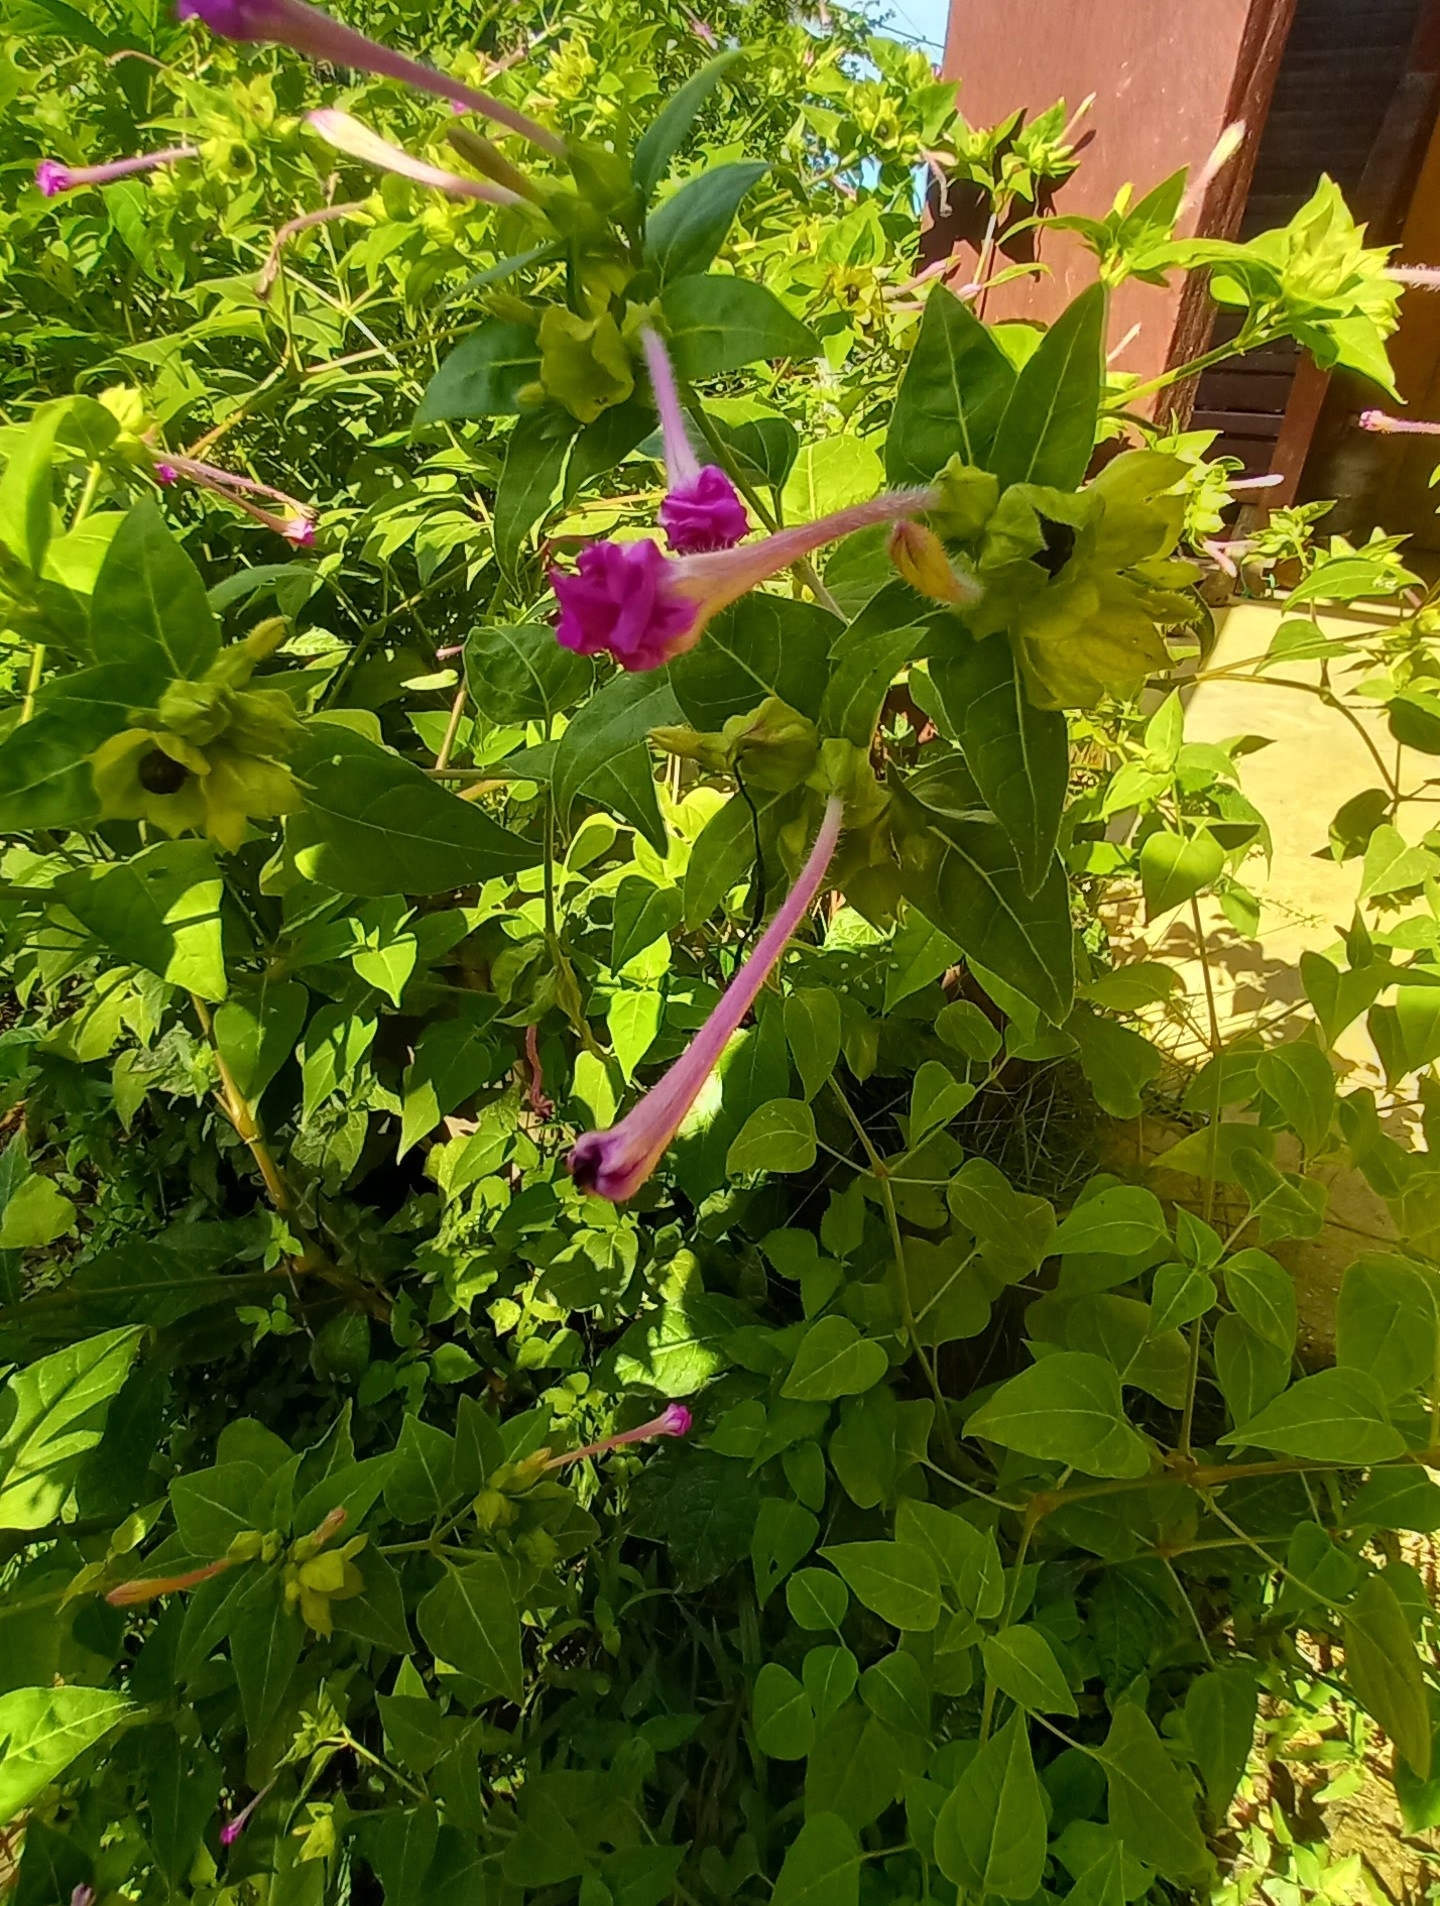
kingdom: Plantae
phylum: Tracheophyta
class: Magnoliopsida
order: Caryophyllales
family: Nyctaginaceae
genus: Mirabilis
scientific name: Mirabilis jalapa
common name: Marvel-of-peru
